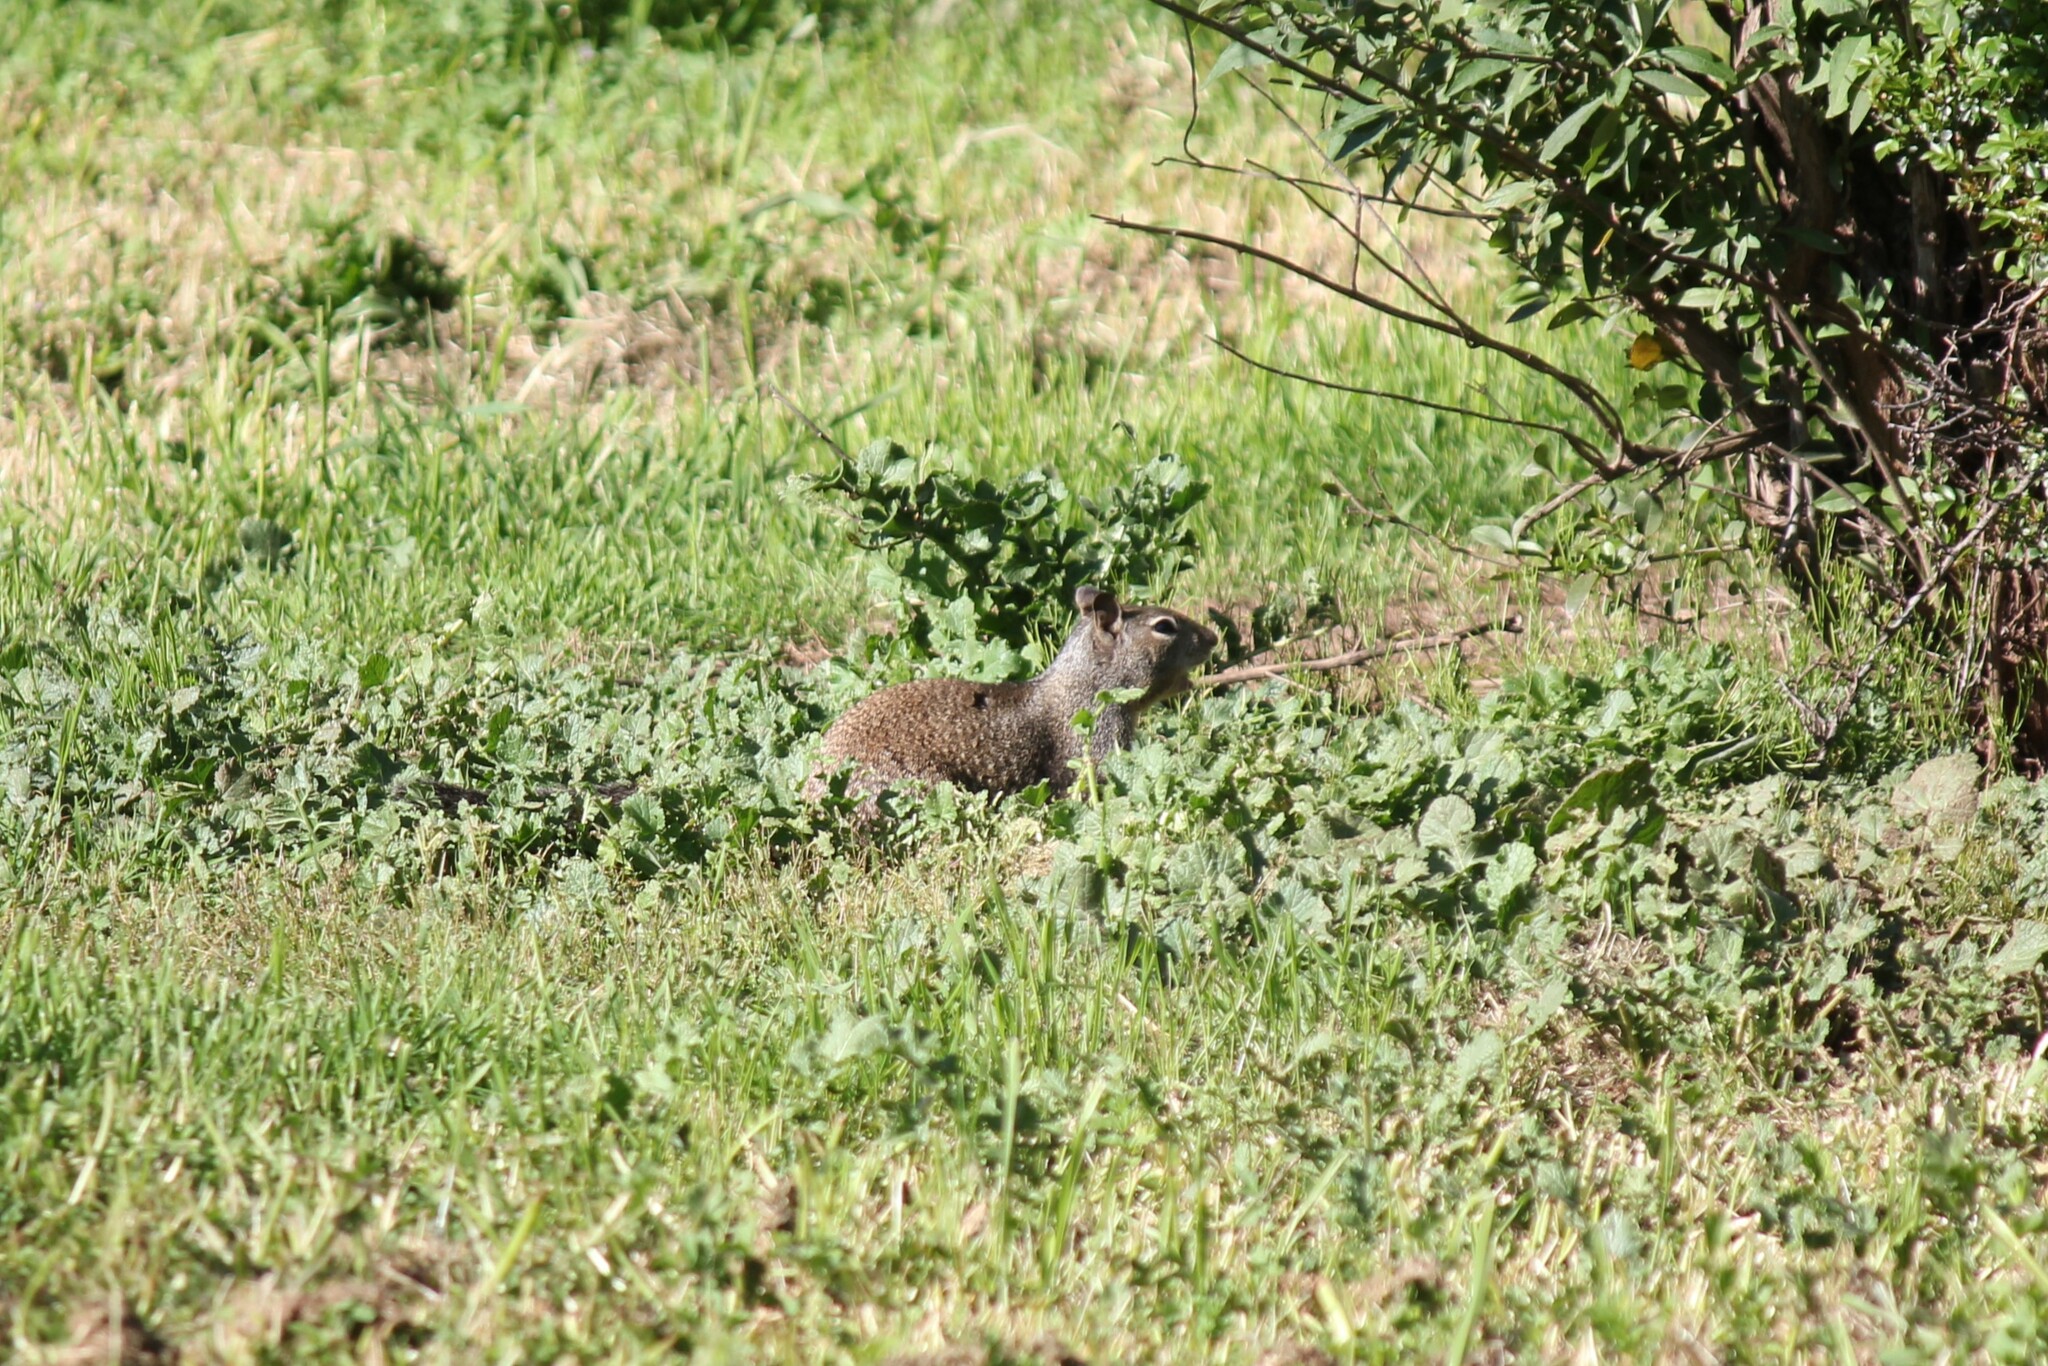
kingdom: Animalia
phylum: Chordata
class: Mammalia
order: Rodentia
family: Sciuridae
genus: Otospermophilus
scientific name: Otospermophilus beecheyi
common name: California ground squirrel
